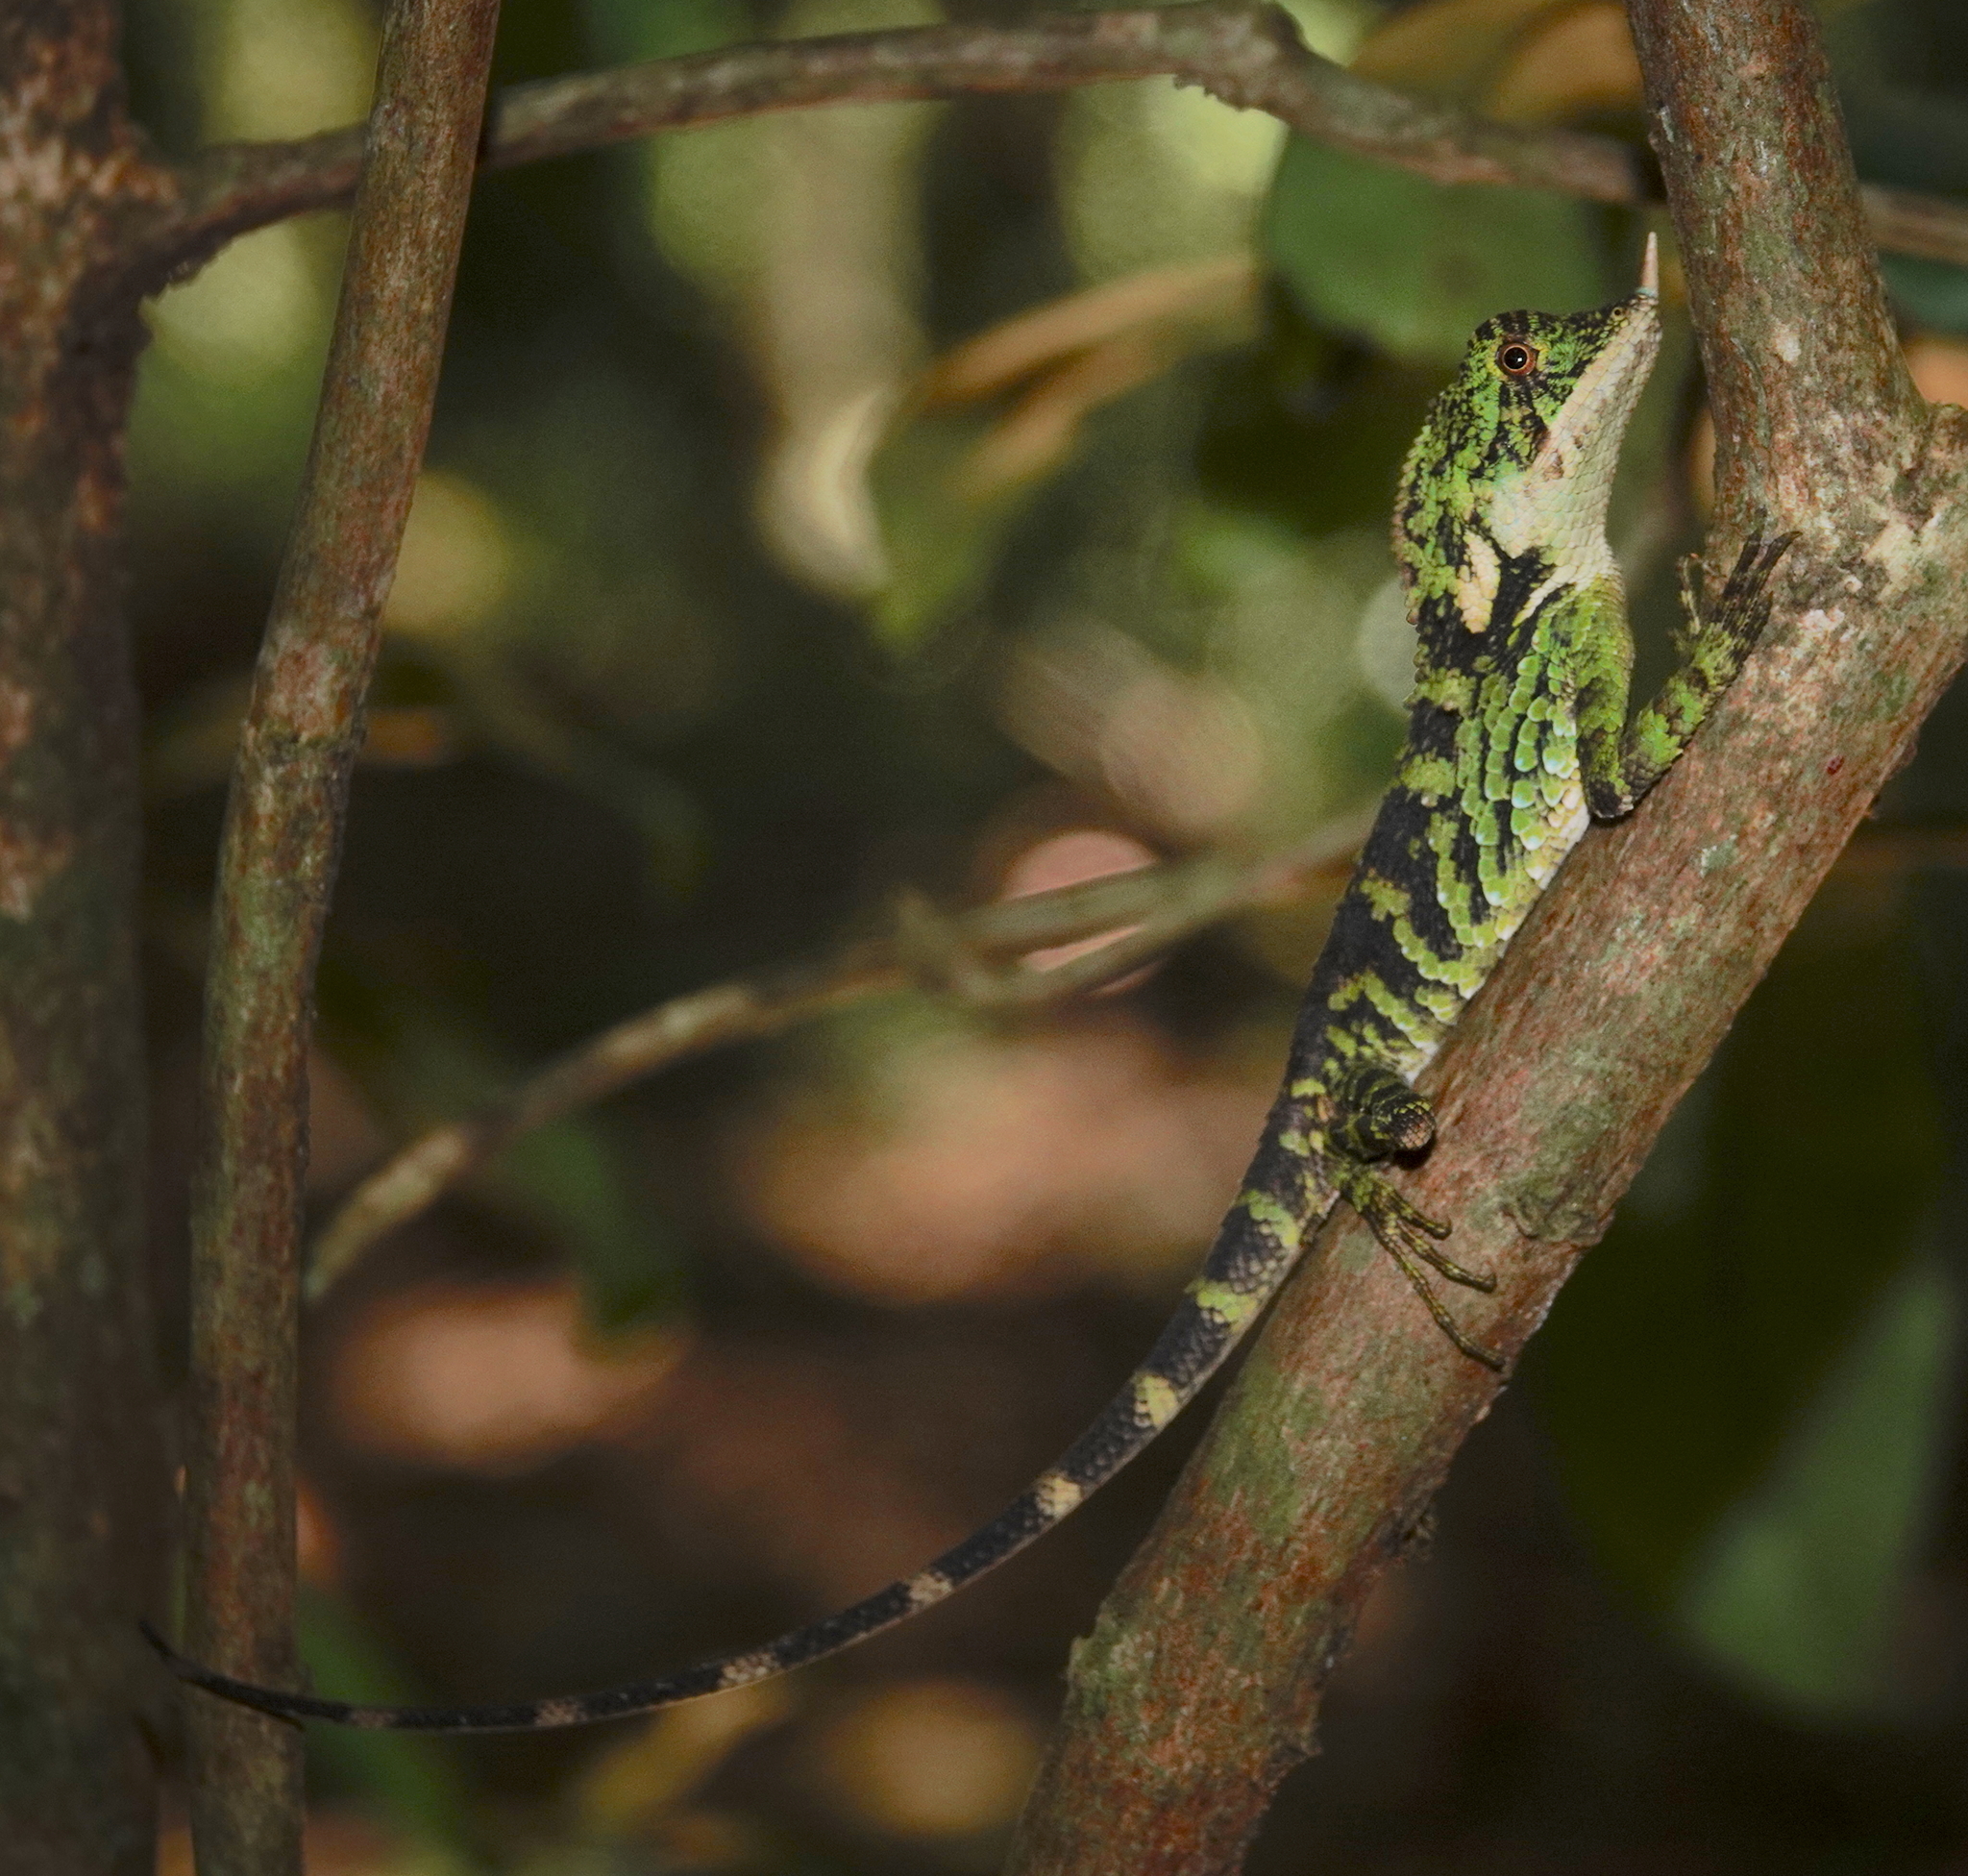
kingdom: Animalia
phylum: Chordata
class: Squamata
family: Agamidae
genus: Ceratophora
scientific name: Ceratophora stoddartii
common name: Mountain horned agama
